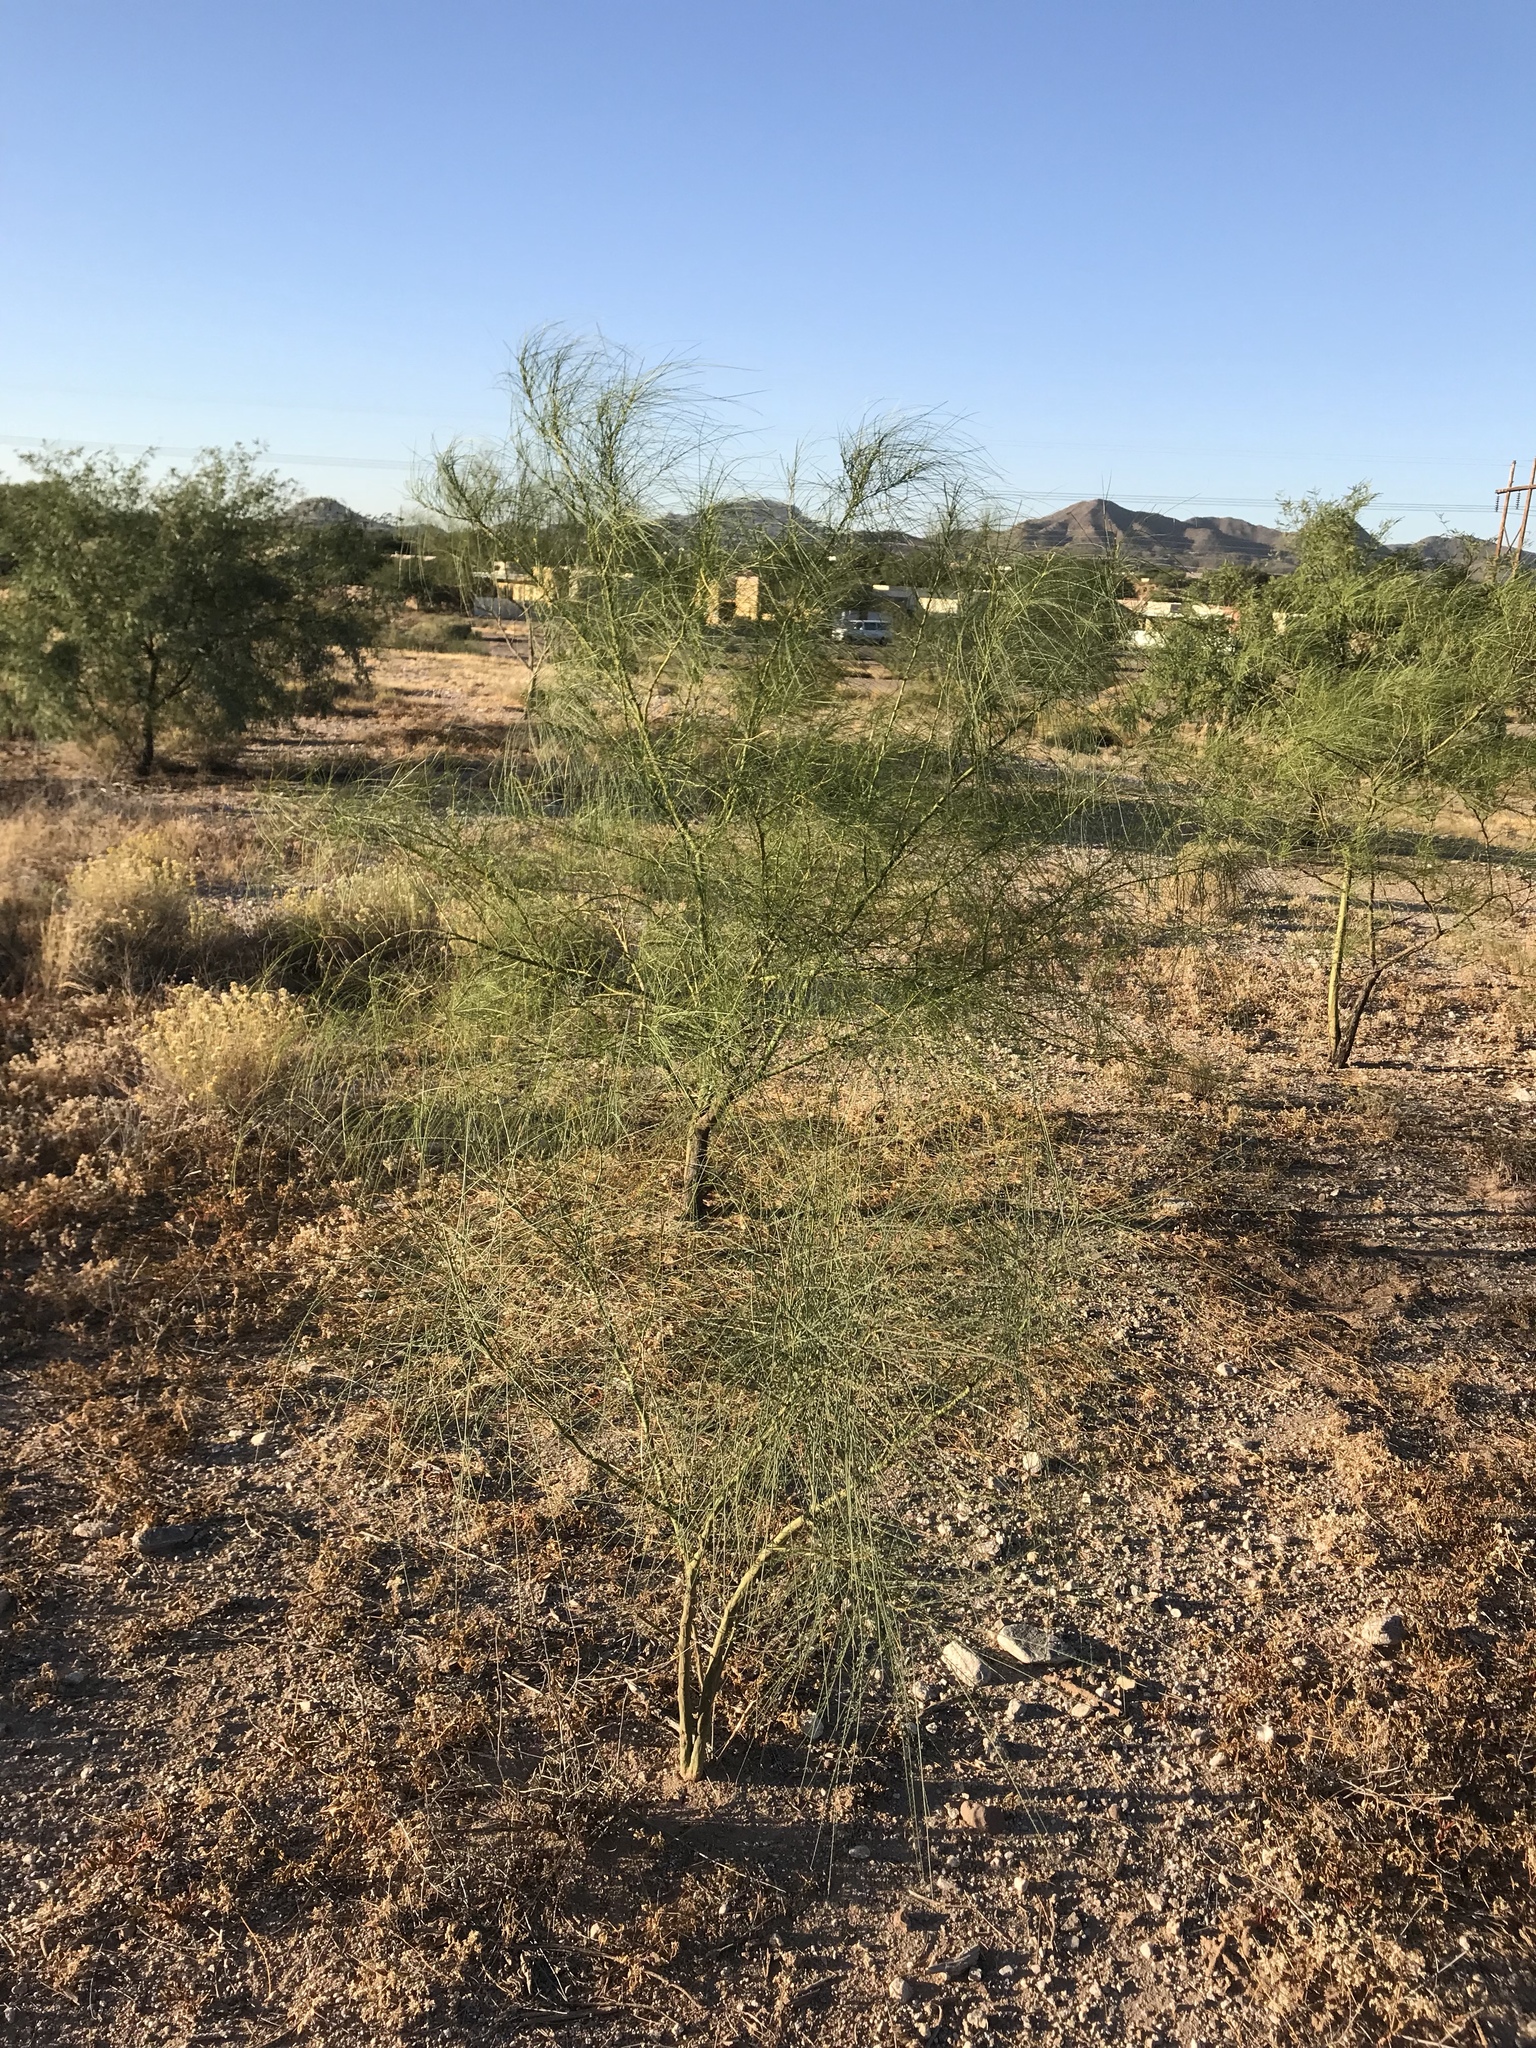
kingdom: Plantae
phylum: Tracheophyta
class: Magnoliopsida
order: Fabales
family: Fabaceae
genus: Parkinsonia
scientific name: Parkinsonia aculeata
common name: Jerusalem thorn
